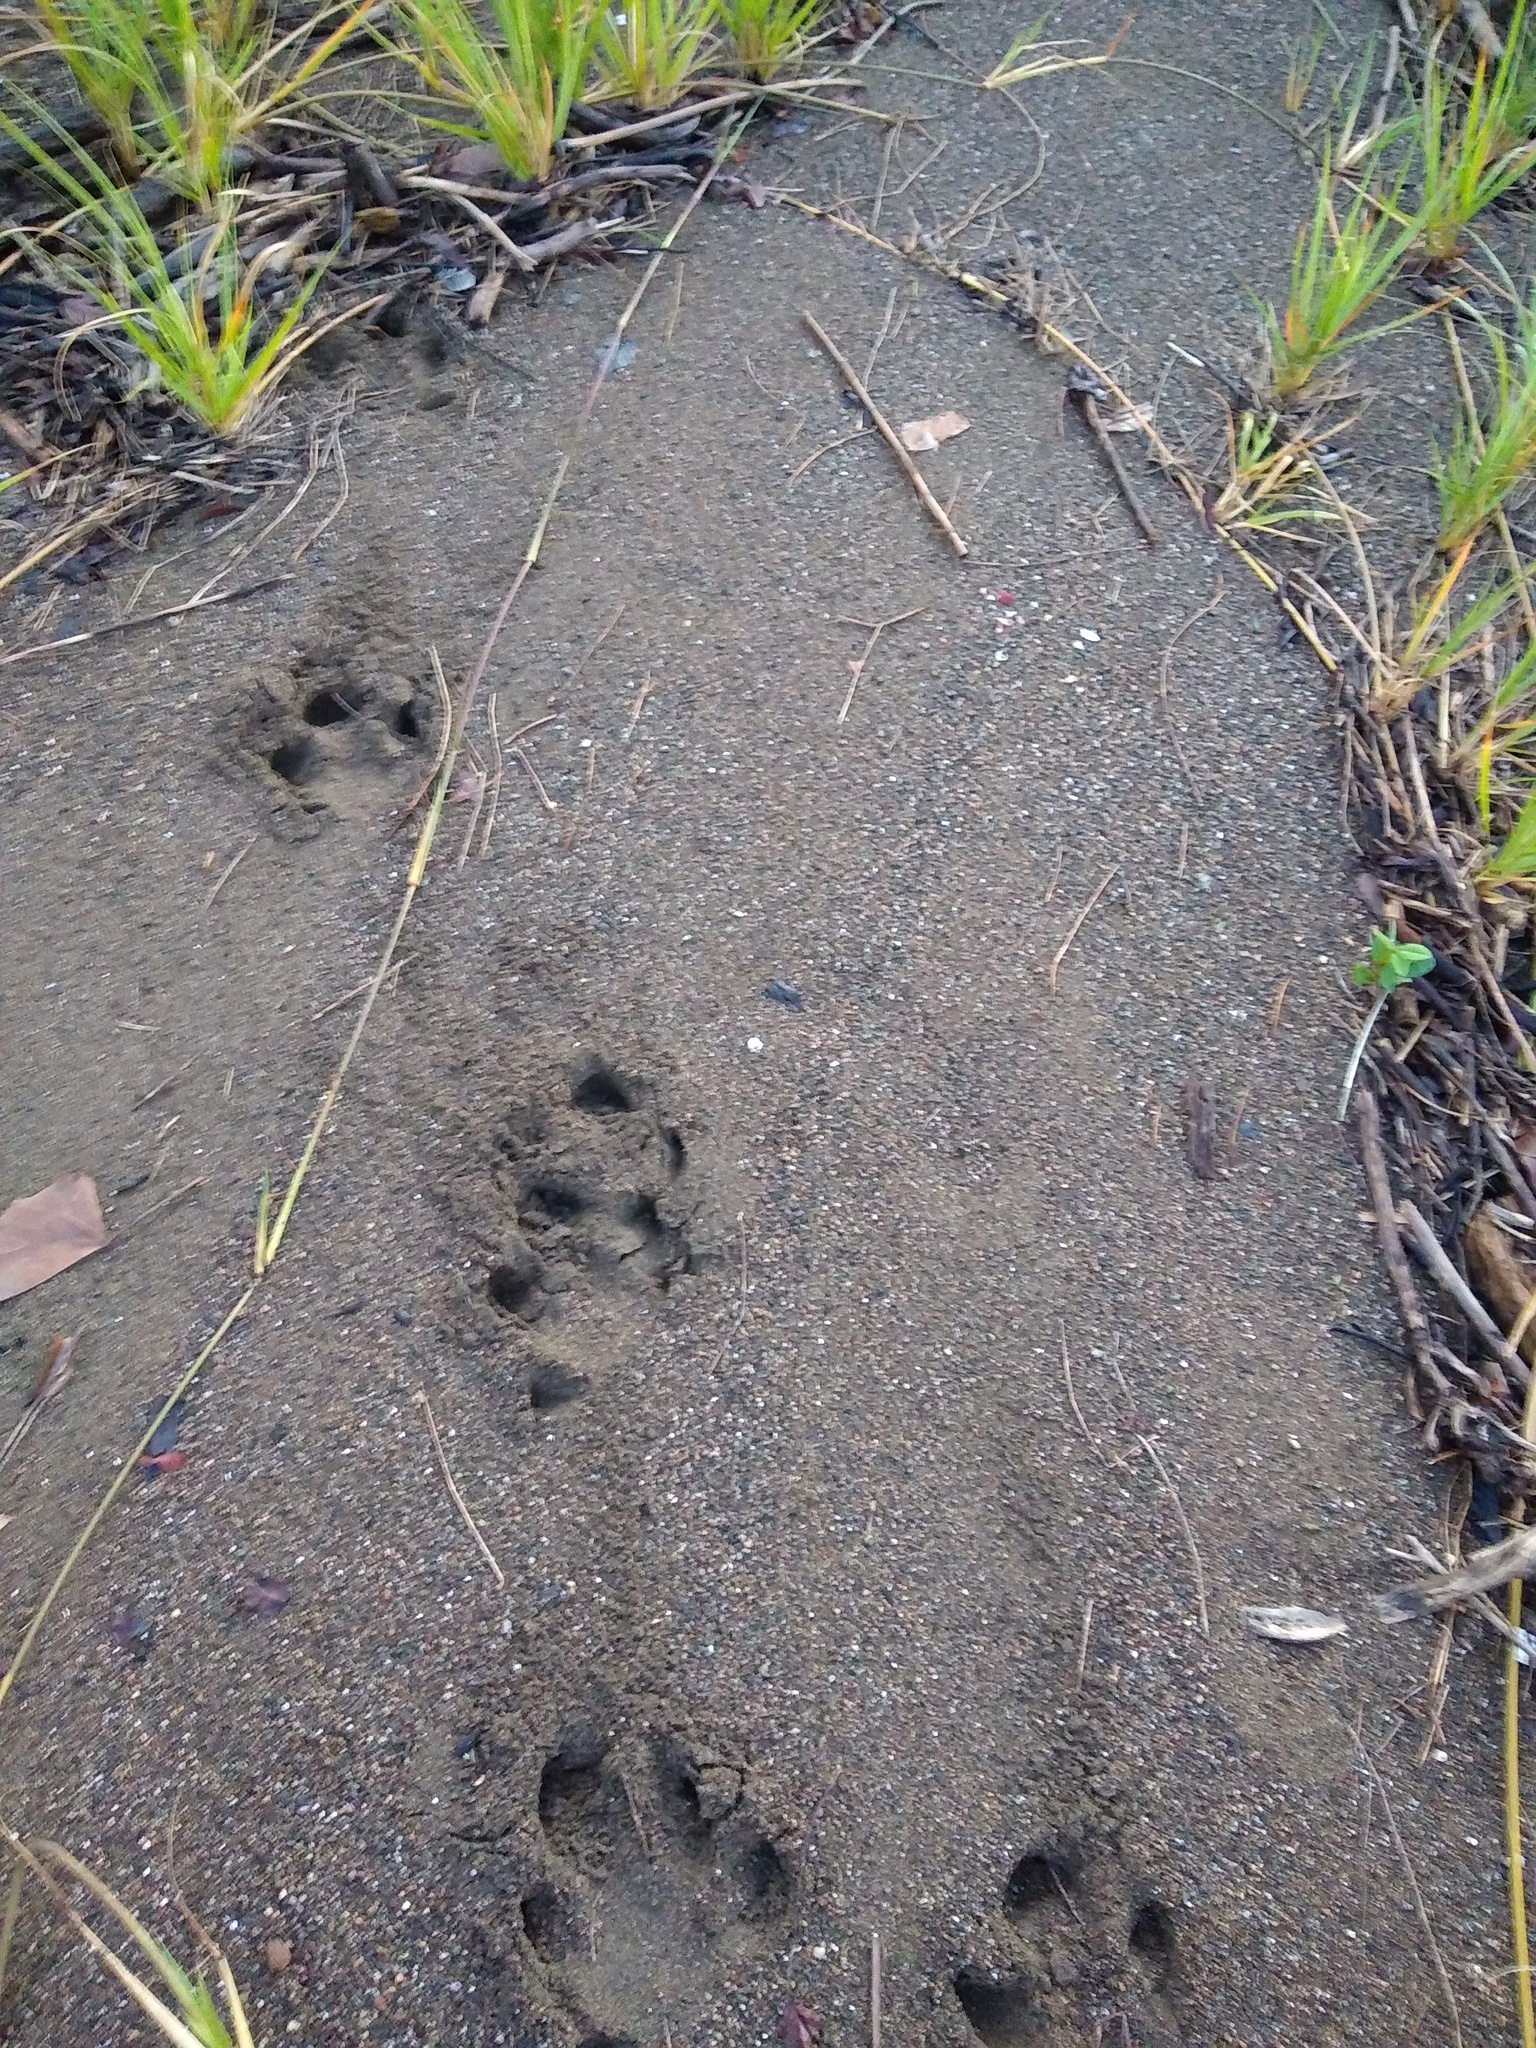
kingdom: Animalia
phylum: Chordata
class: Mammalia
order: Perissodactyla
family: Tapiridae
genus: Tapirella
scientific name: Tapirella bairdii
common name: Baird's tapir
